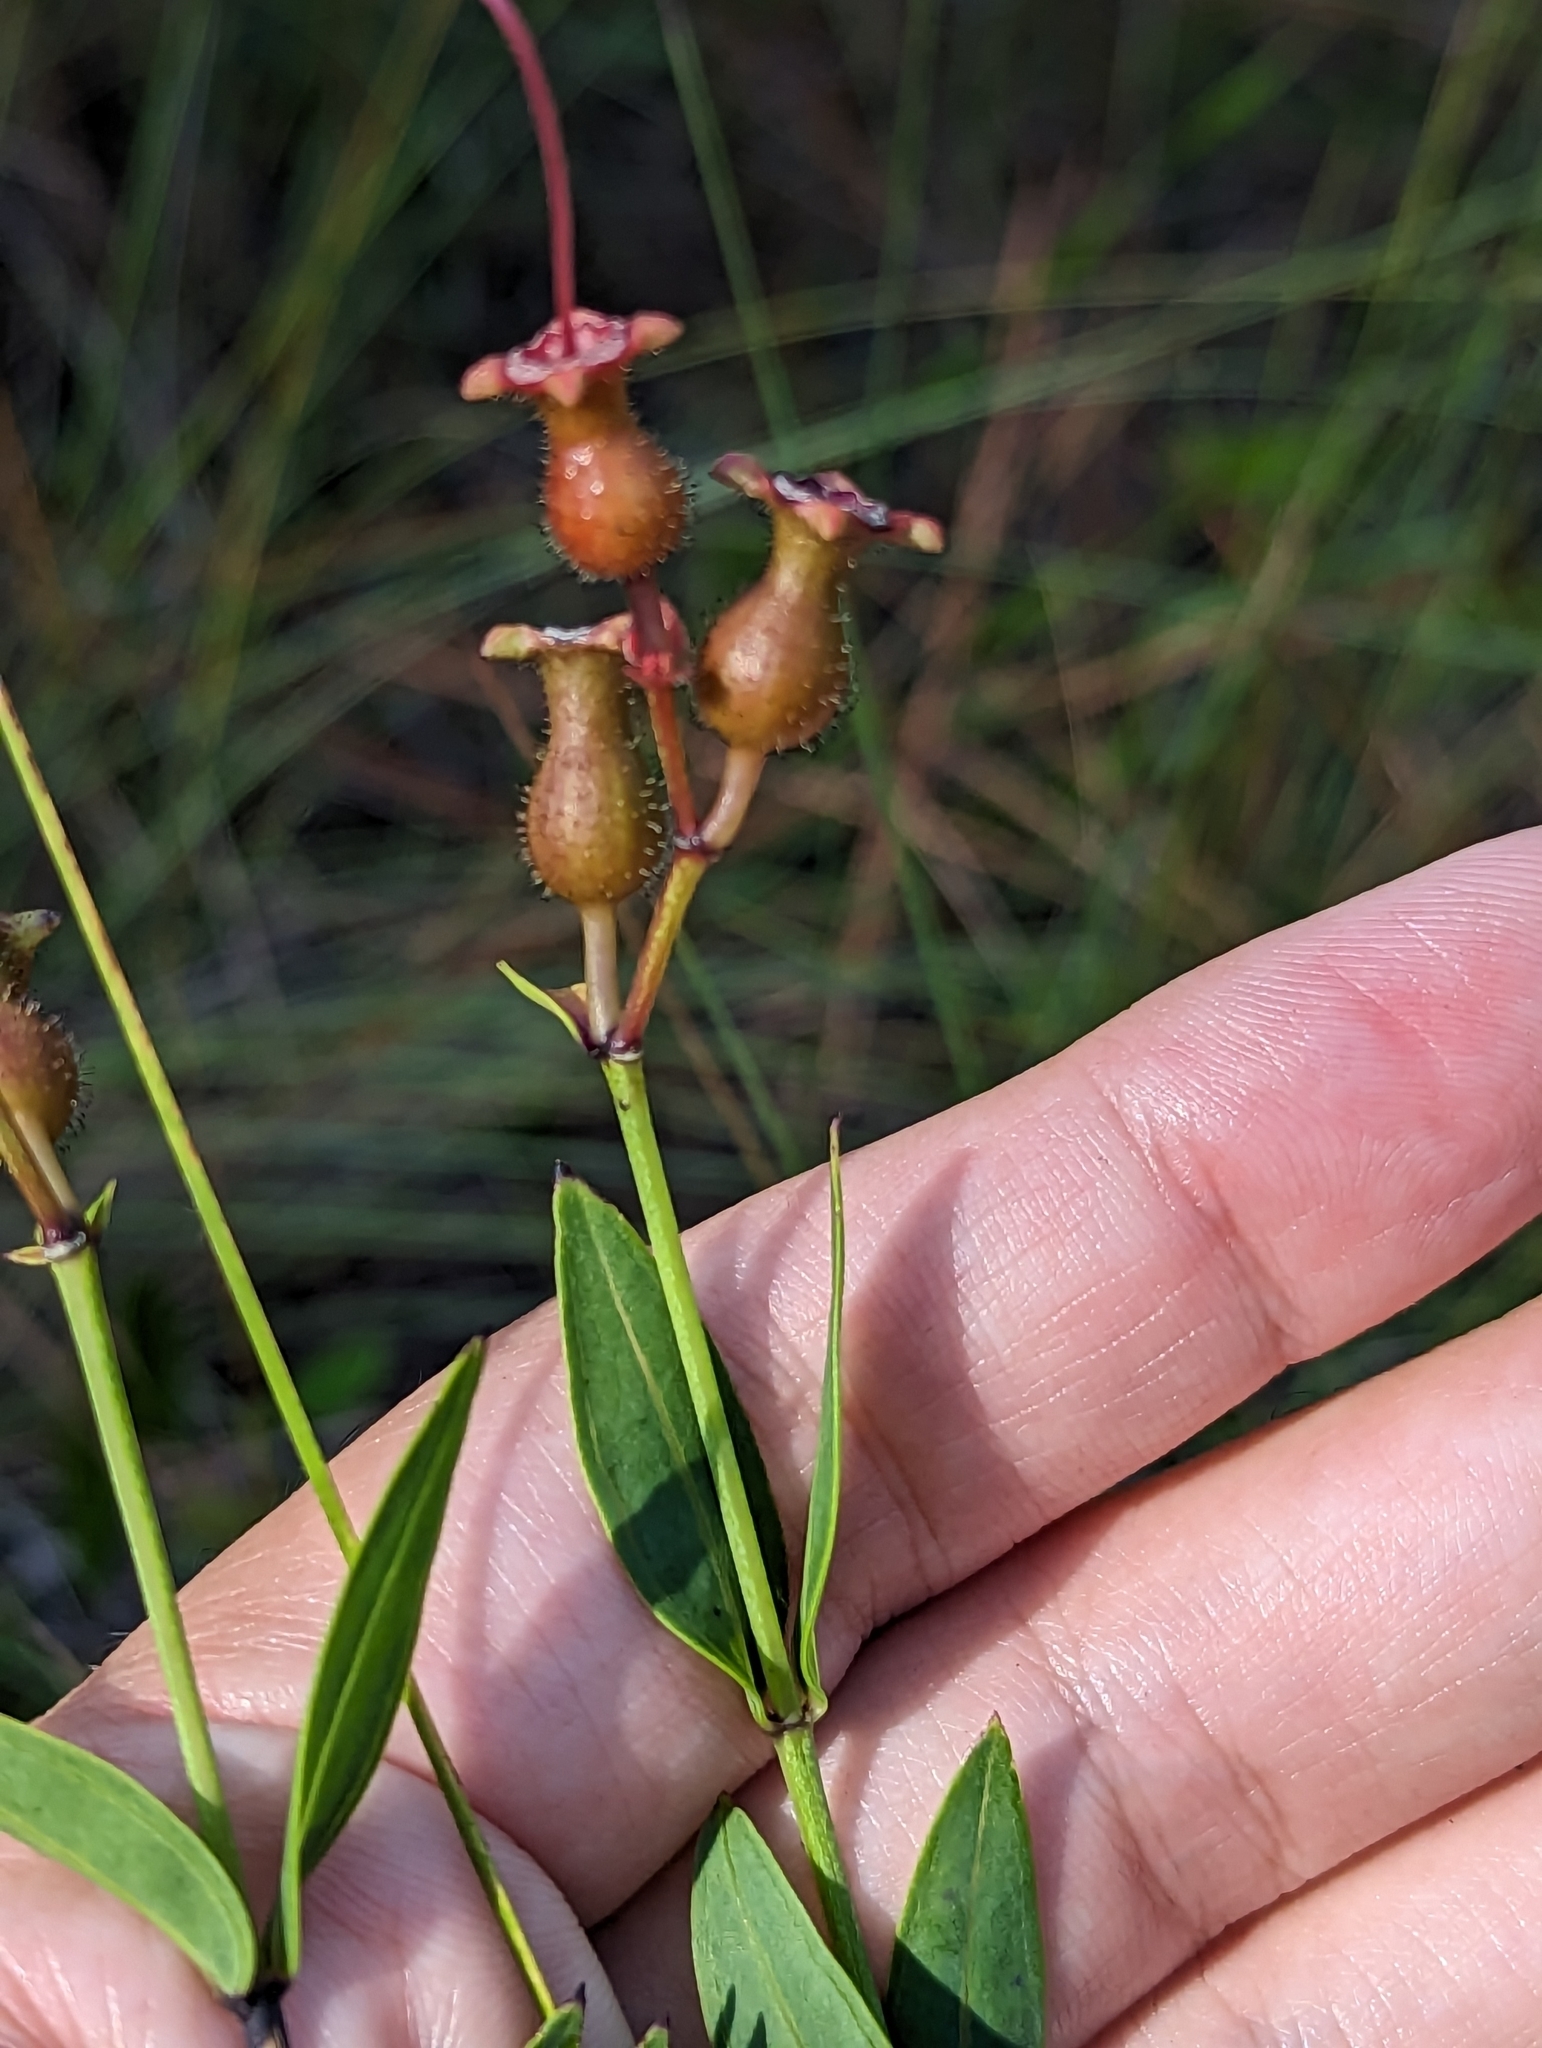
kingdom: Plantae
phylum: Tracheophyta
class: Magnoliopsida
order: Myrtales
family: Melastomataceae
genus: Rhexia
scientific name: Rhexia alifanus
